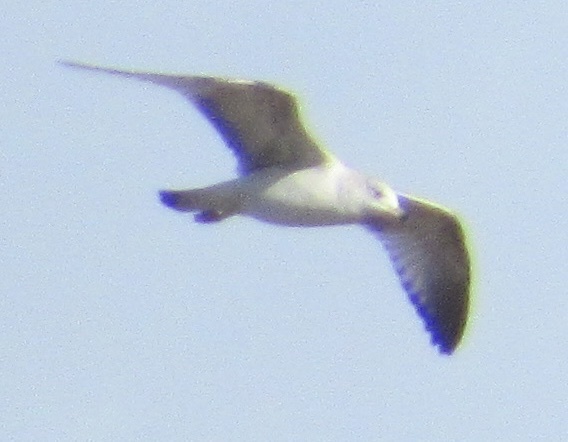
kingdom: Animalia
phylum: Chordata
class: Aves
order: Charadriiformes
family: Laridae
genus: Larus
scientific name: Larus delawarensis
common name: Ring-billed gull
